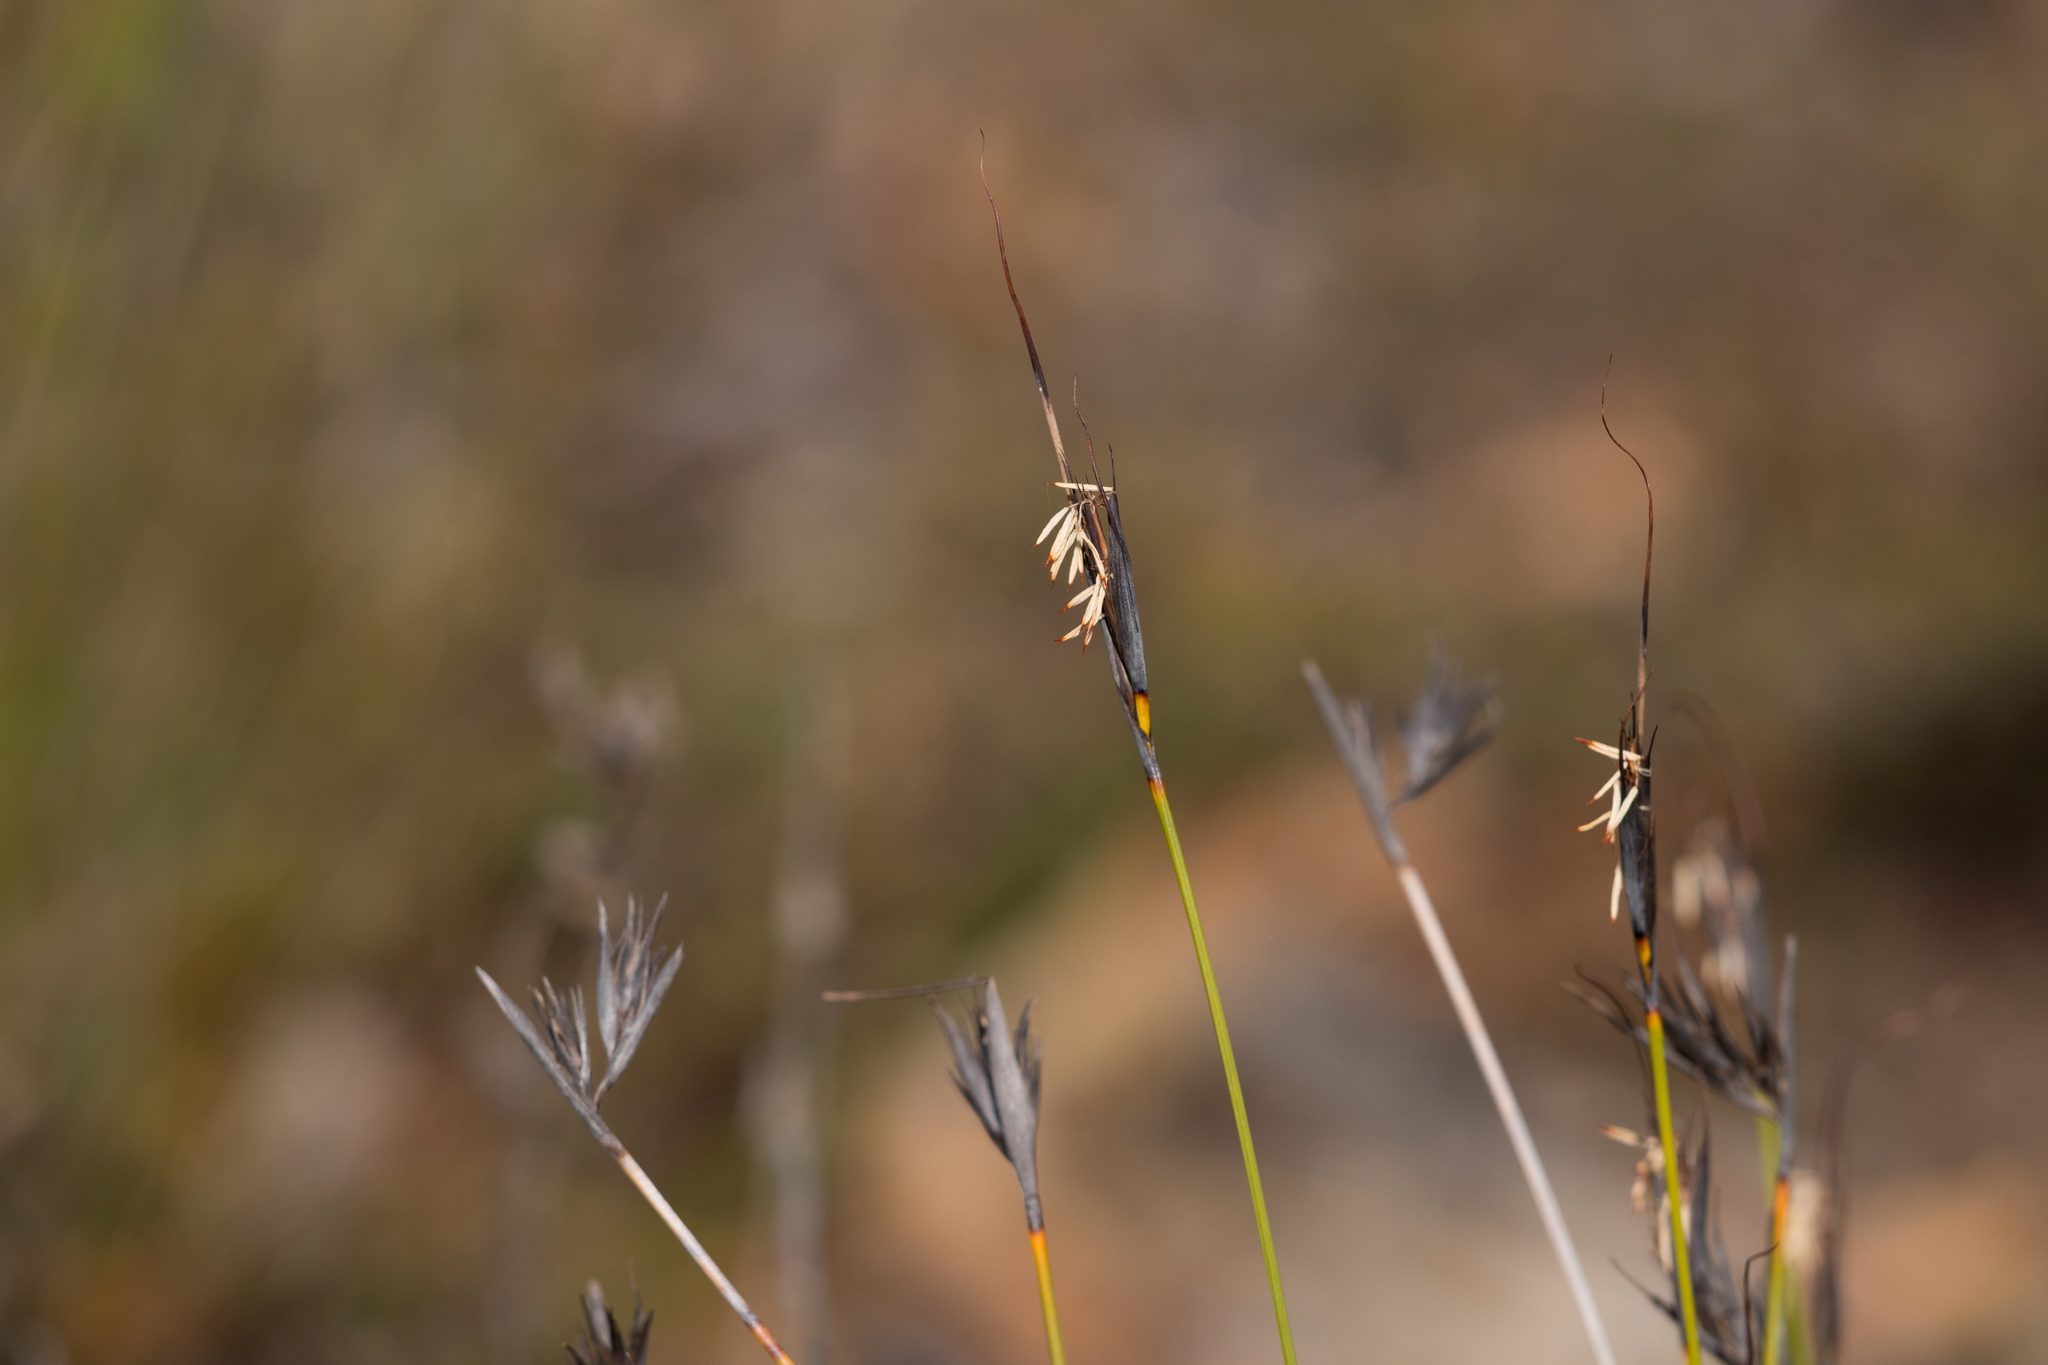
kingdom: Plantae
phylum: Tracheophyta
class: Liliopsida
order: Poales
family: Cyperaceae
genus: Lepidosperma
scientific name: Lepidosperma carphoides
